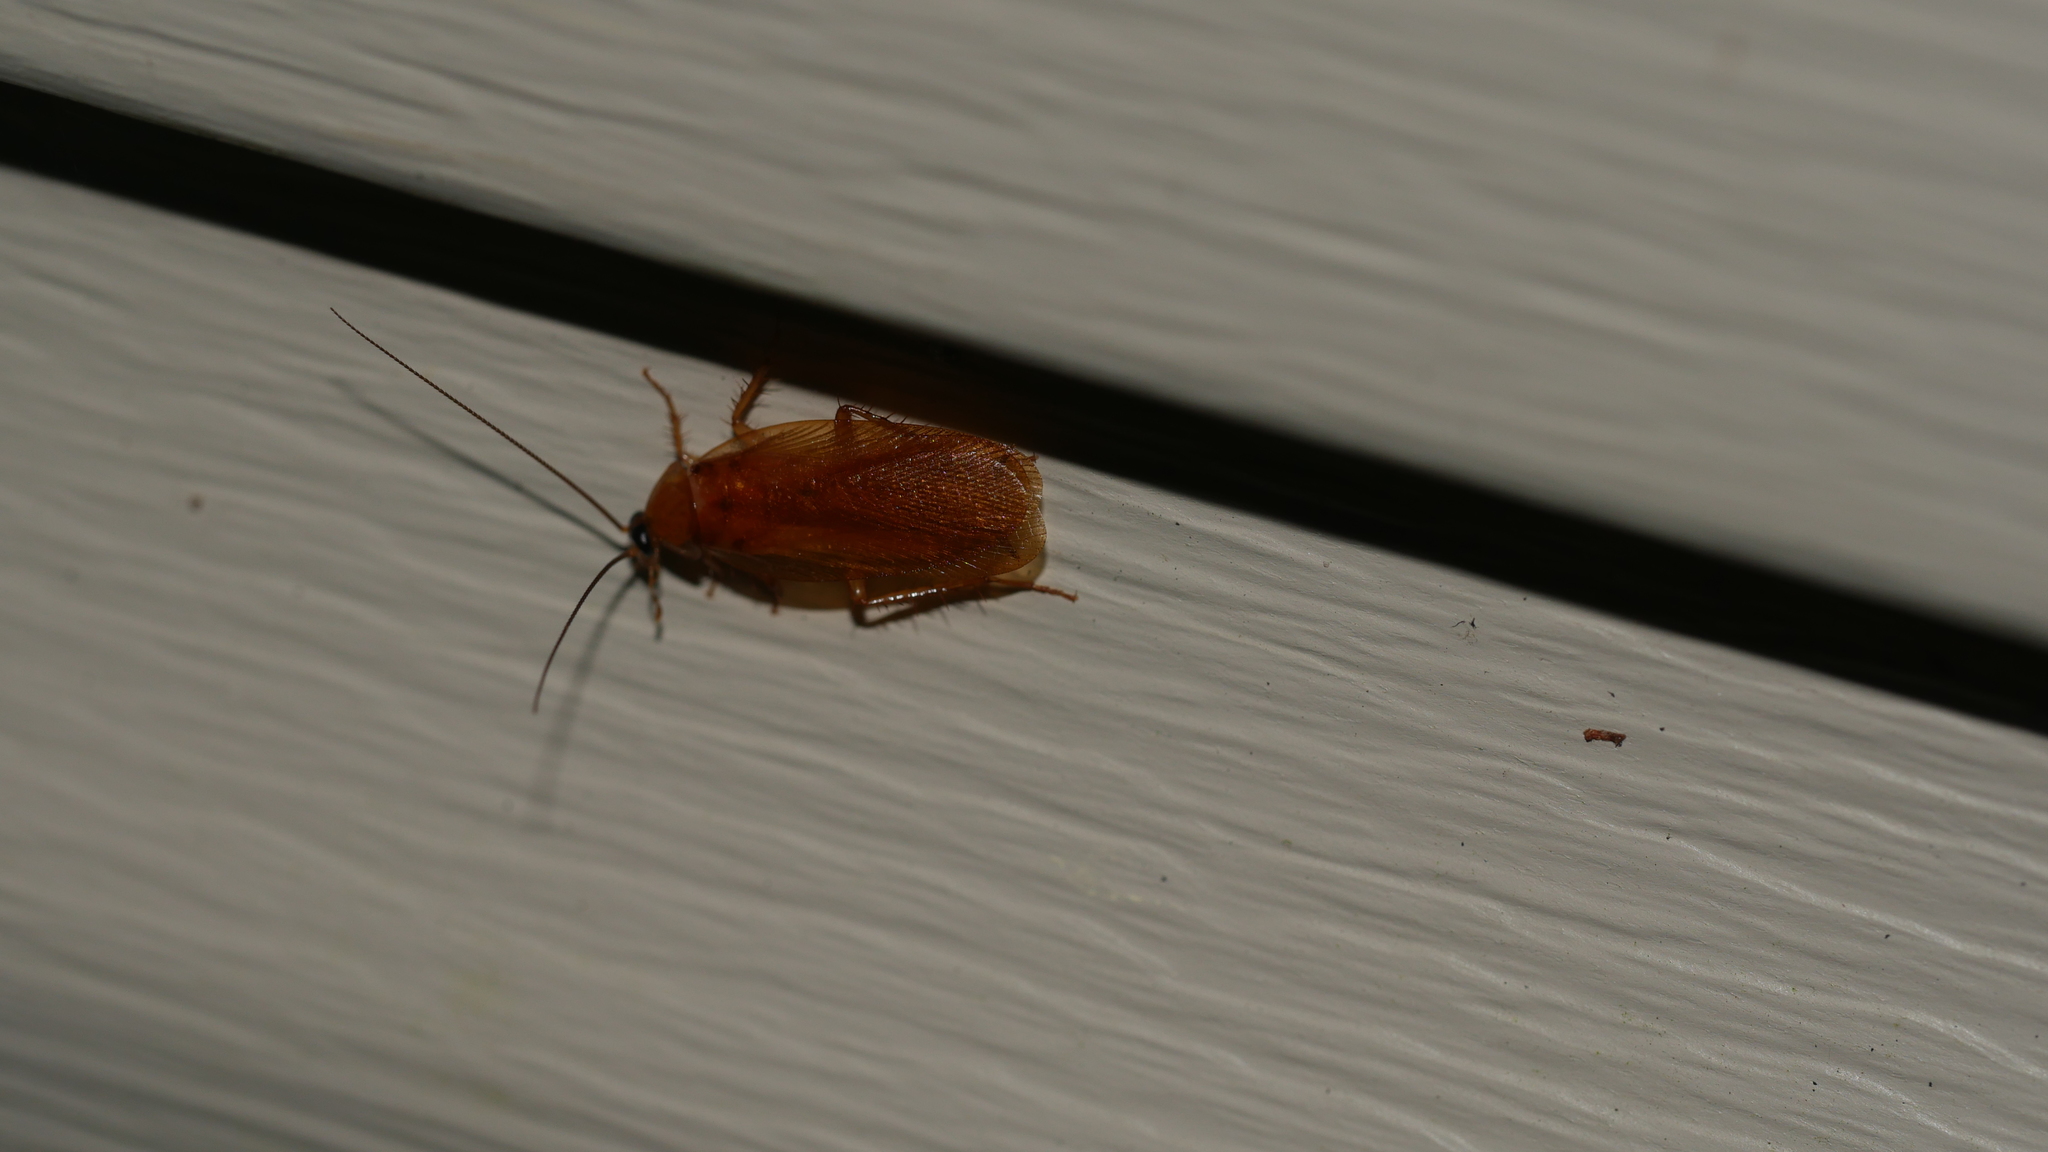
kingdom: Animalia
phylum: Arthropoda
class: Insecta
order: Blattodea
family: Ectobiidae
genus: Parcoblatta
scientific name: Parcoblatta
